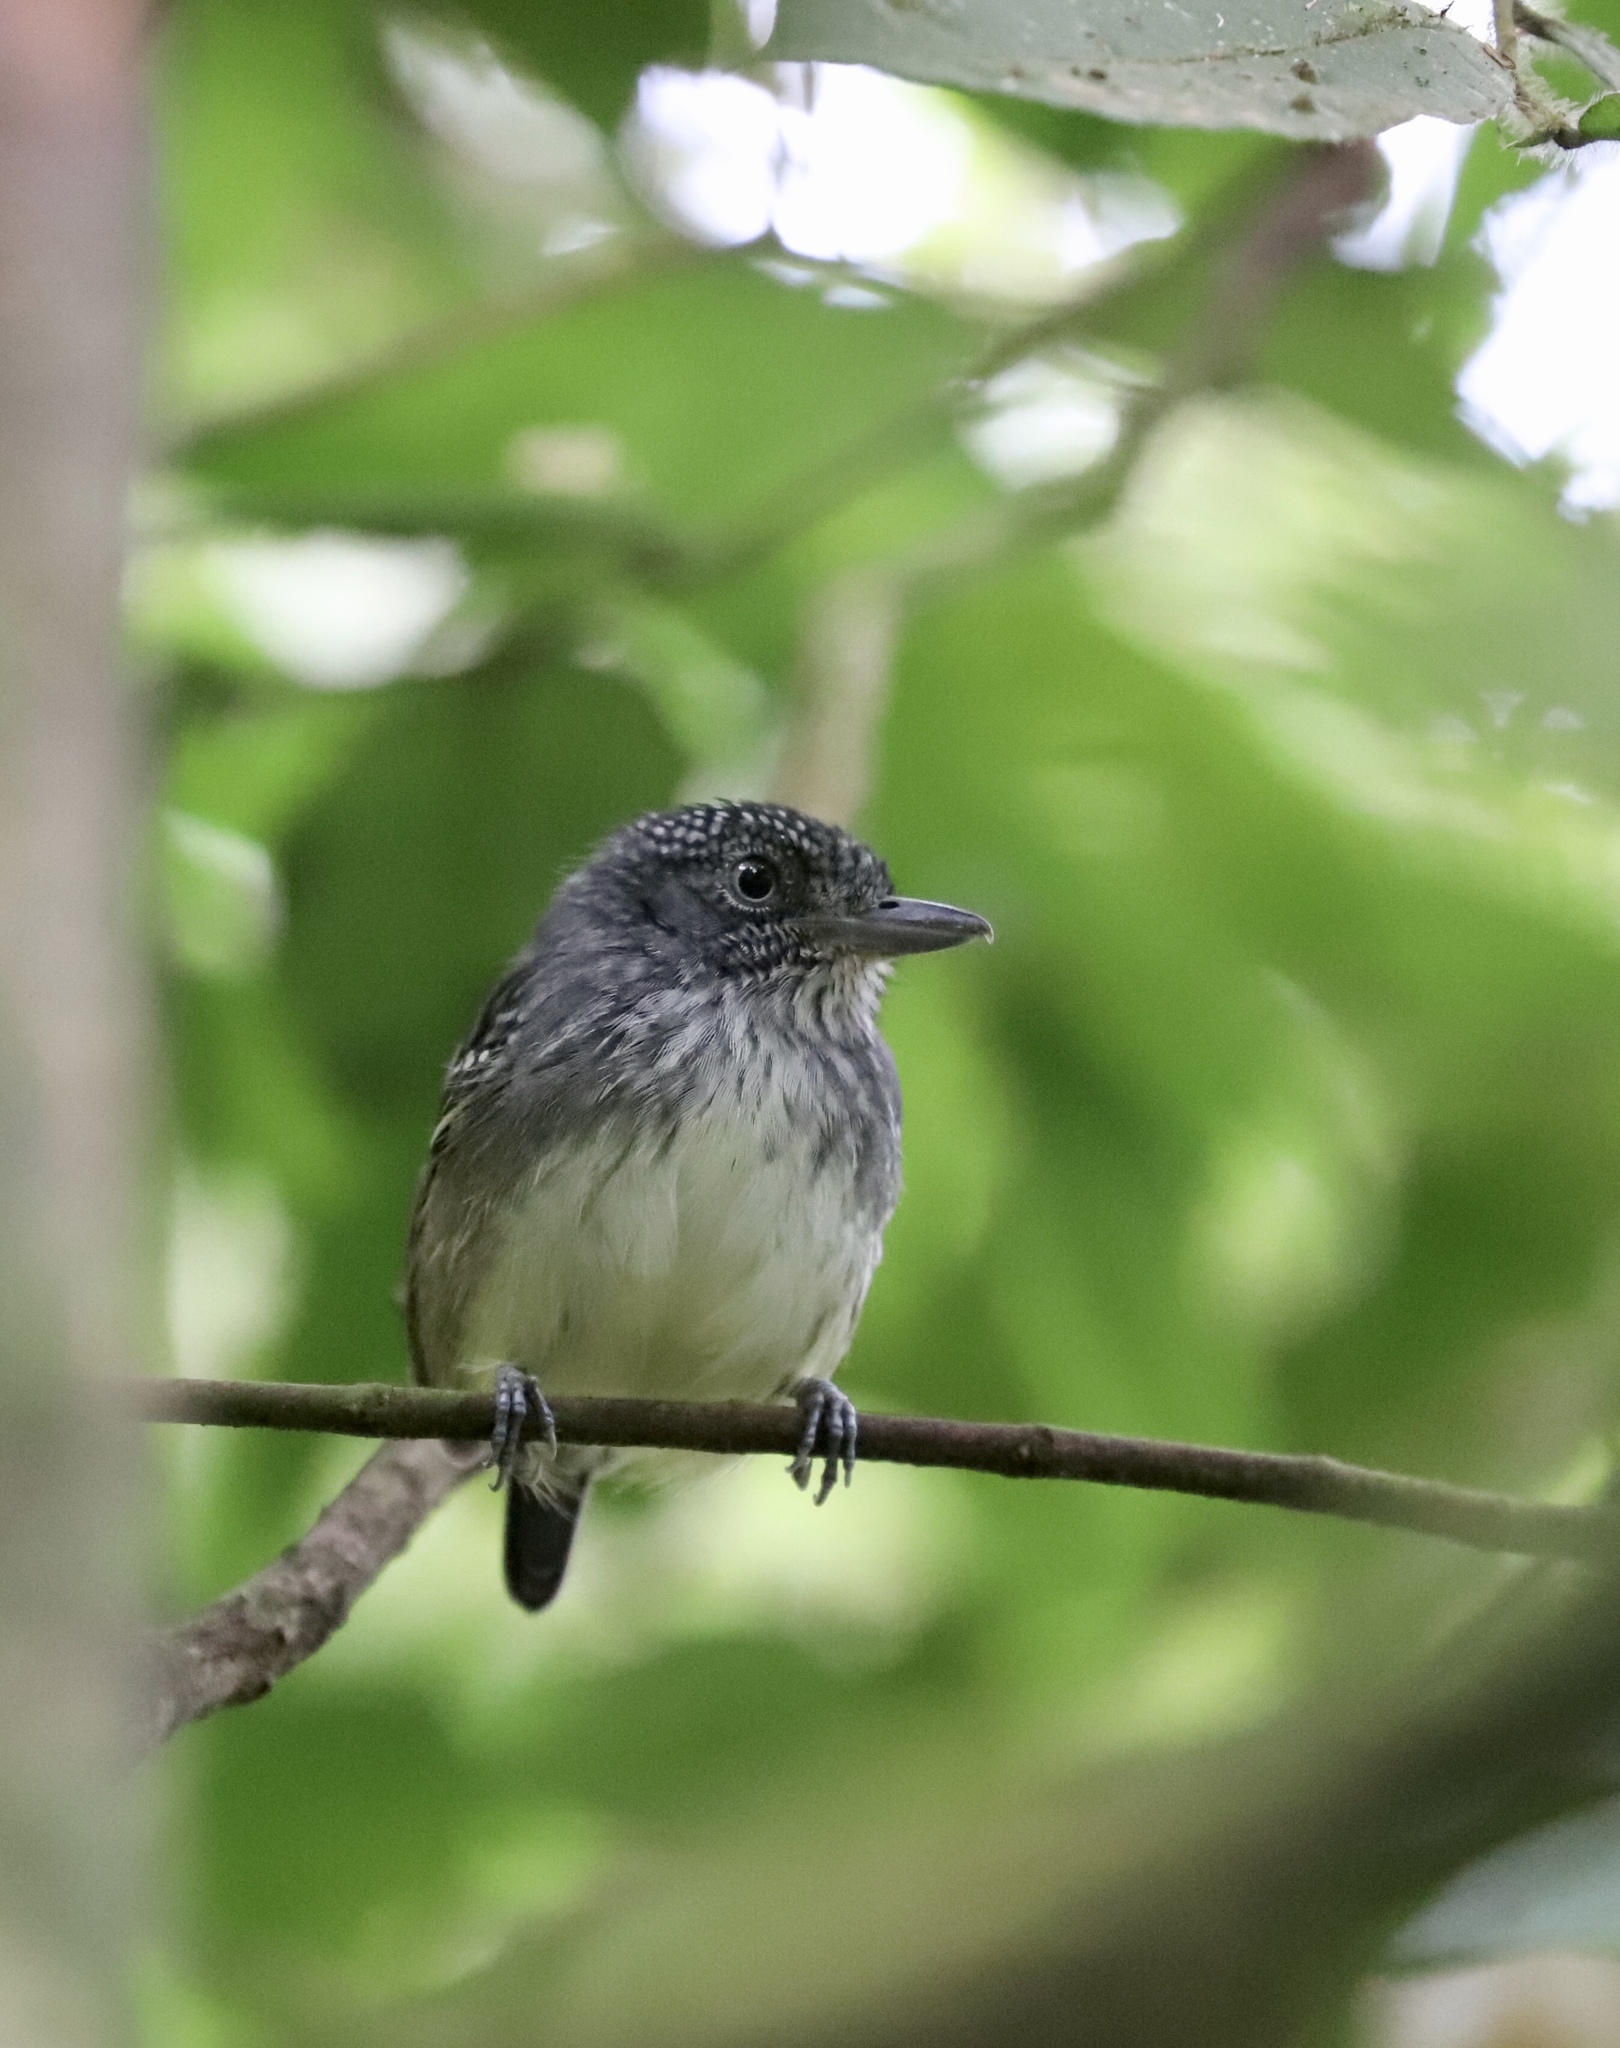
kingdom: Animalia
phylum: Chordata
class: Aves
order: Passeriformes
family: Thamnophilidae
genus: Dysithamnus
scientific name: Dysithamnus puncticeps
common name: Spot-crowned antvireo
